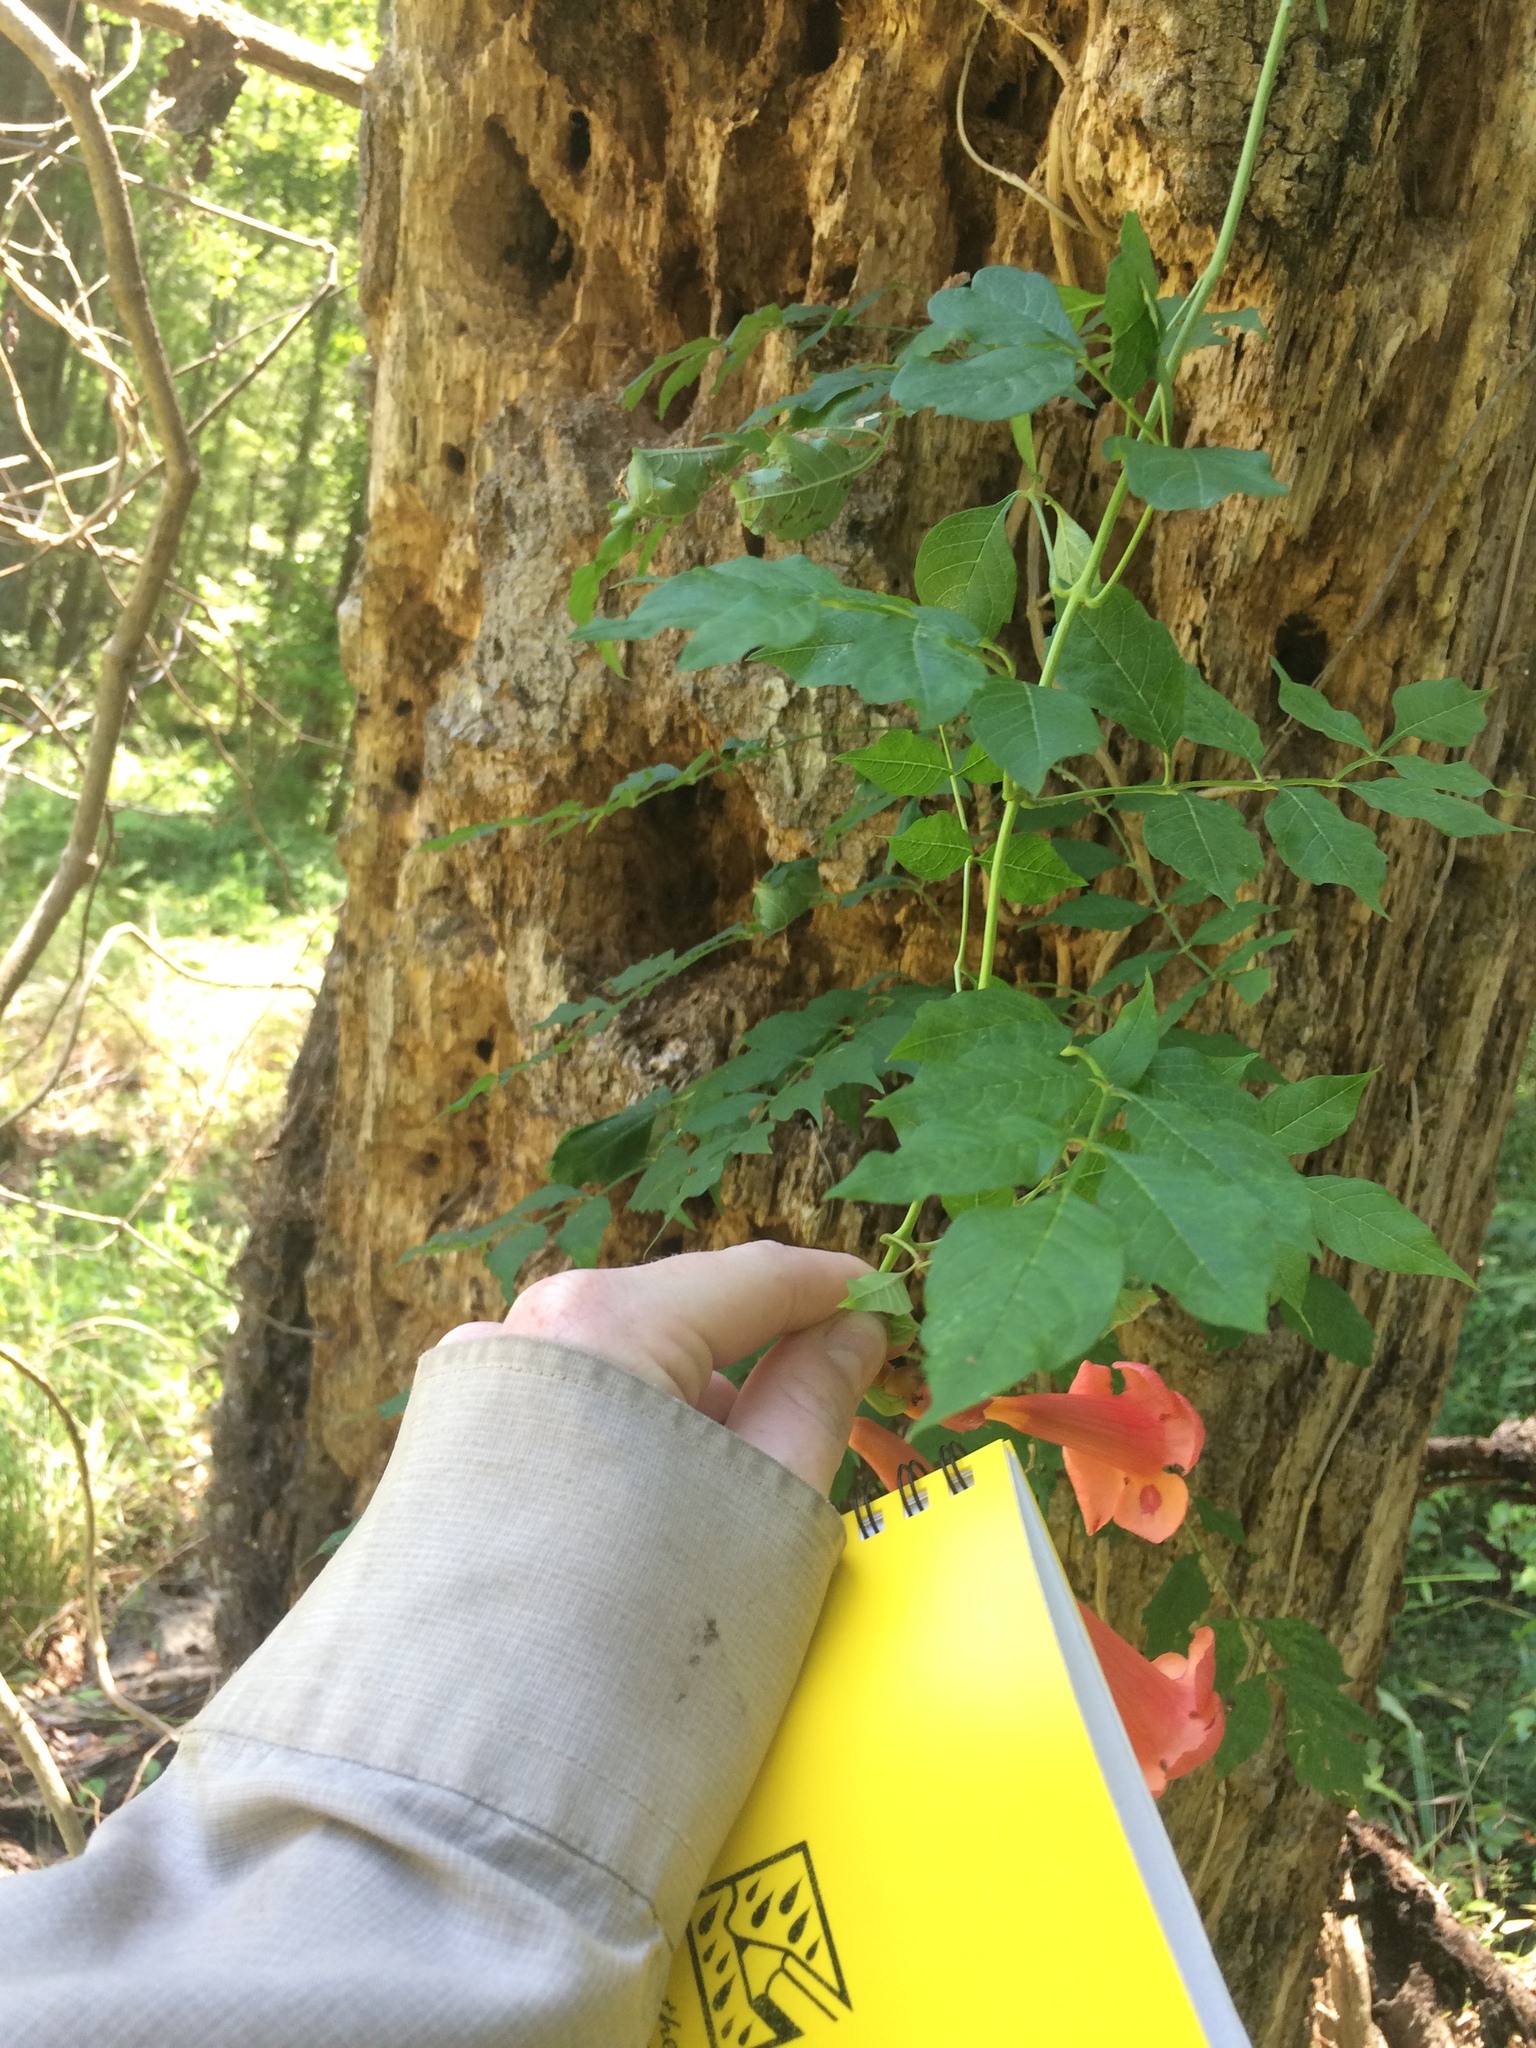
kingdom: Plantae
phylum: Tracheophyta
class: Magnoliopsida
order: Lamiales
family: Bignoniaceae
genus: Campsis
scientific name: Campsis radicans
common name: Trumpet-creeper
